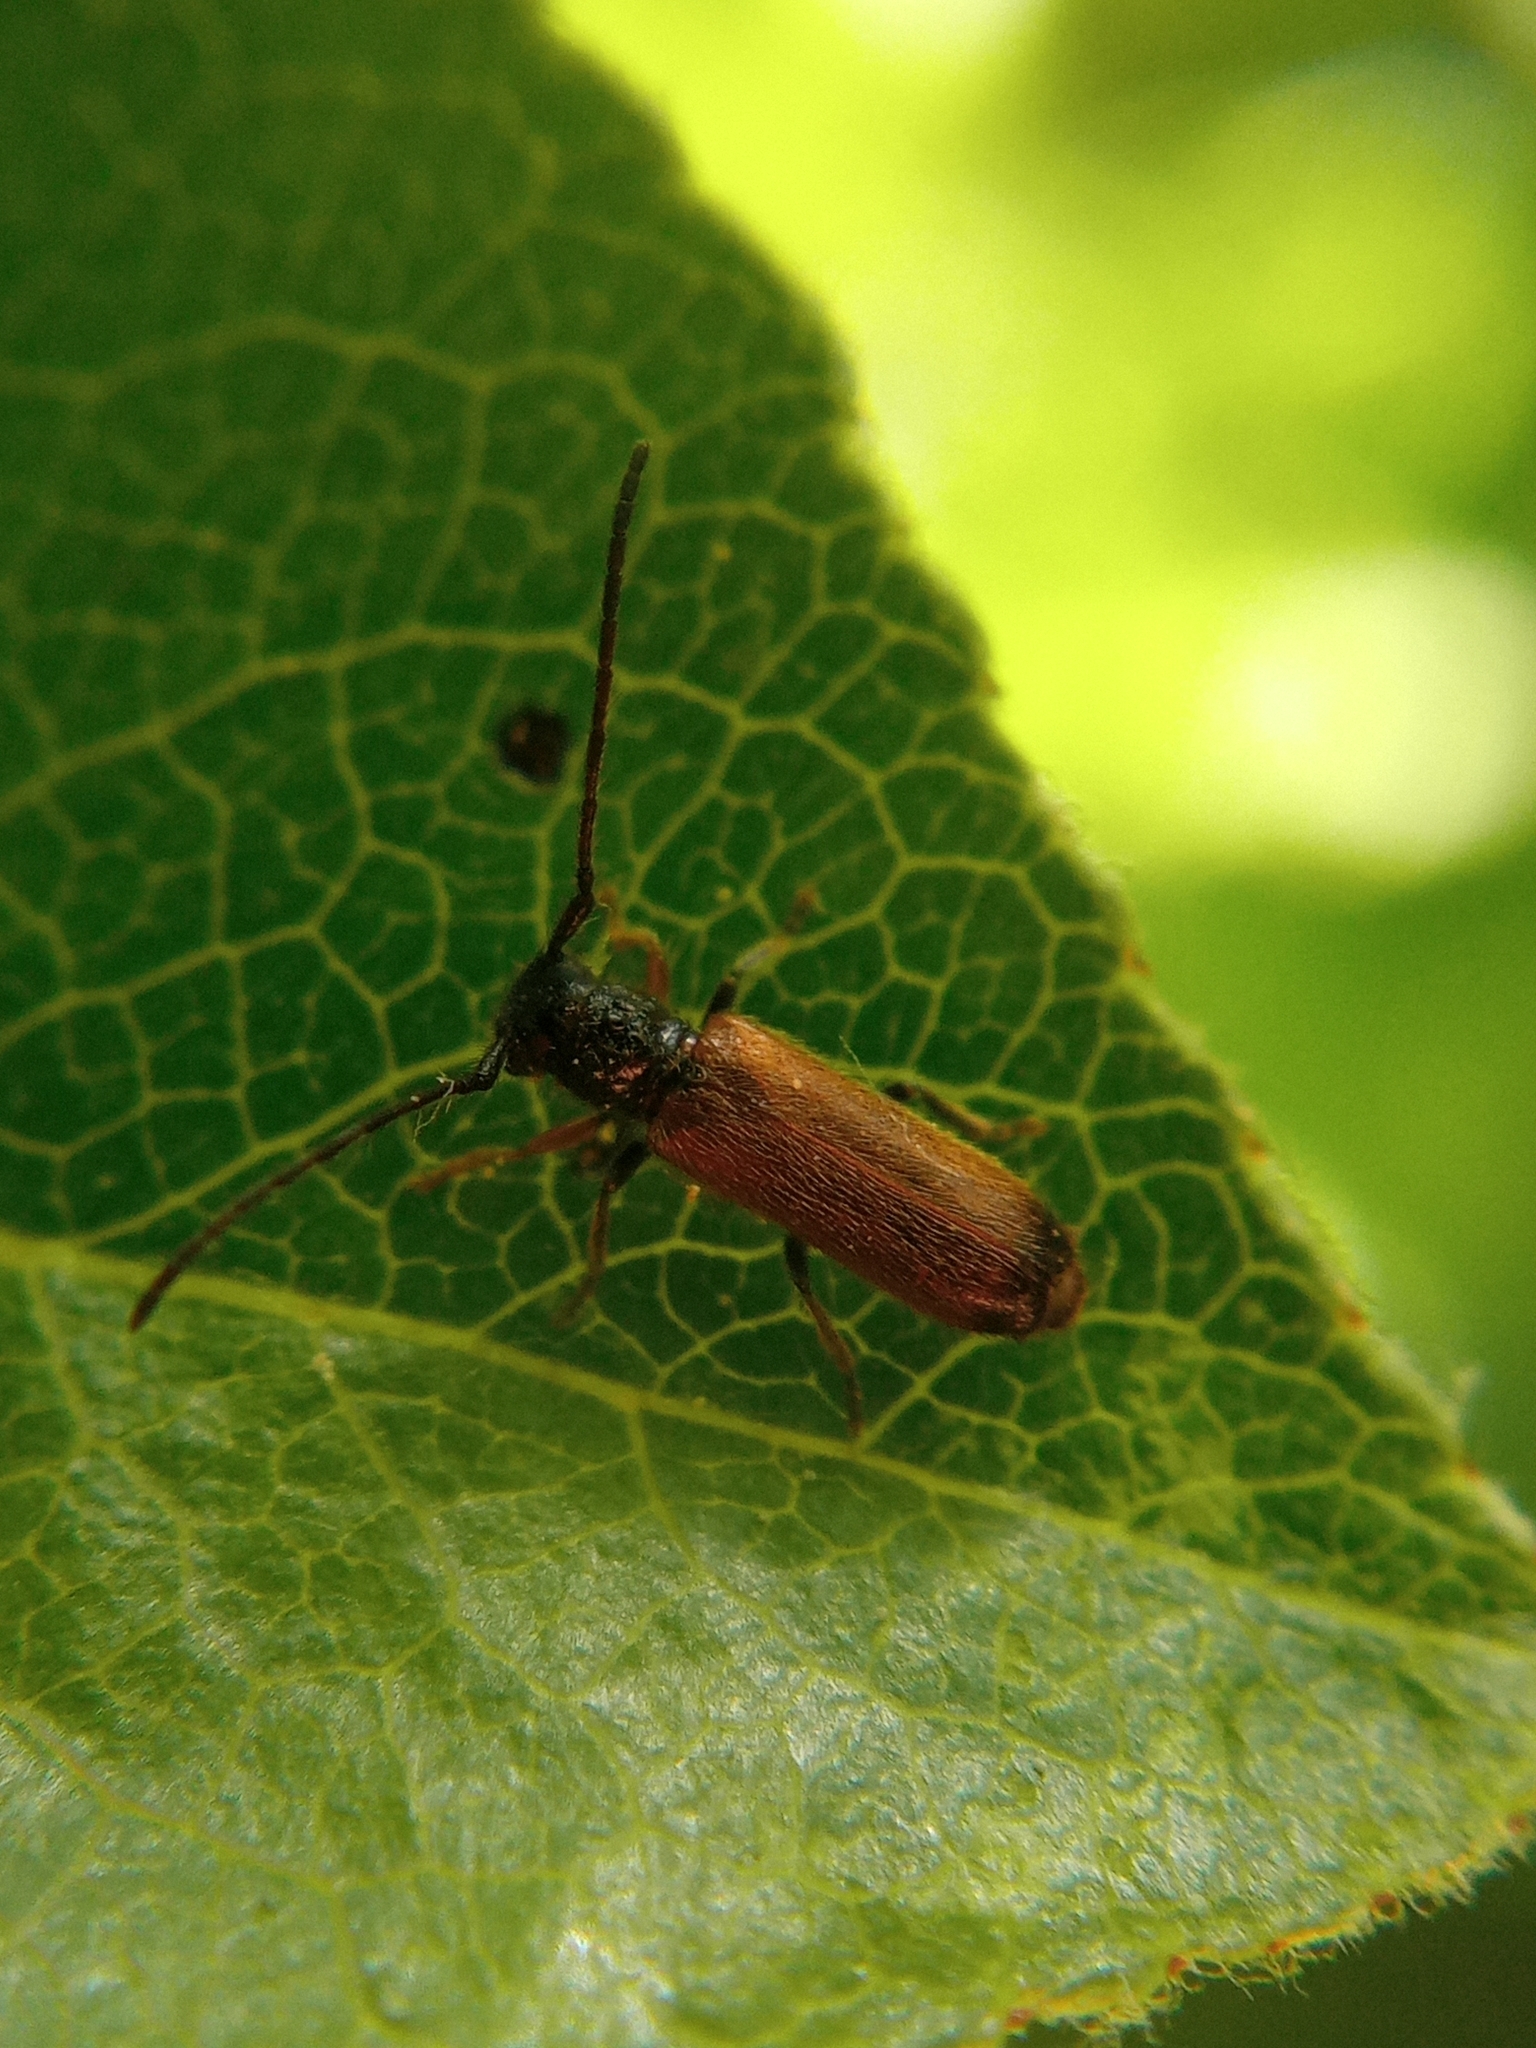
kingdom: Animalia
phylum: Arthropoda
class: Insecta
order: Coleoptera
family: Cerambycidae
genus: Tetrops
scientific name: Tetrops praeustus
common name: Plum beetle
